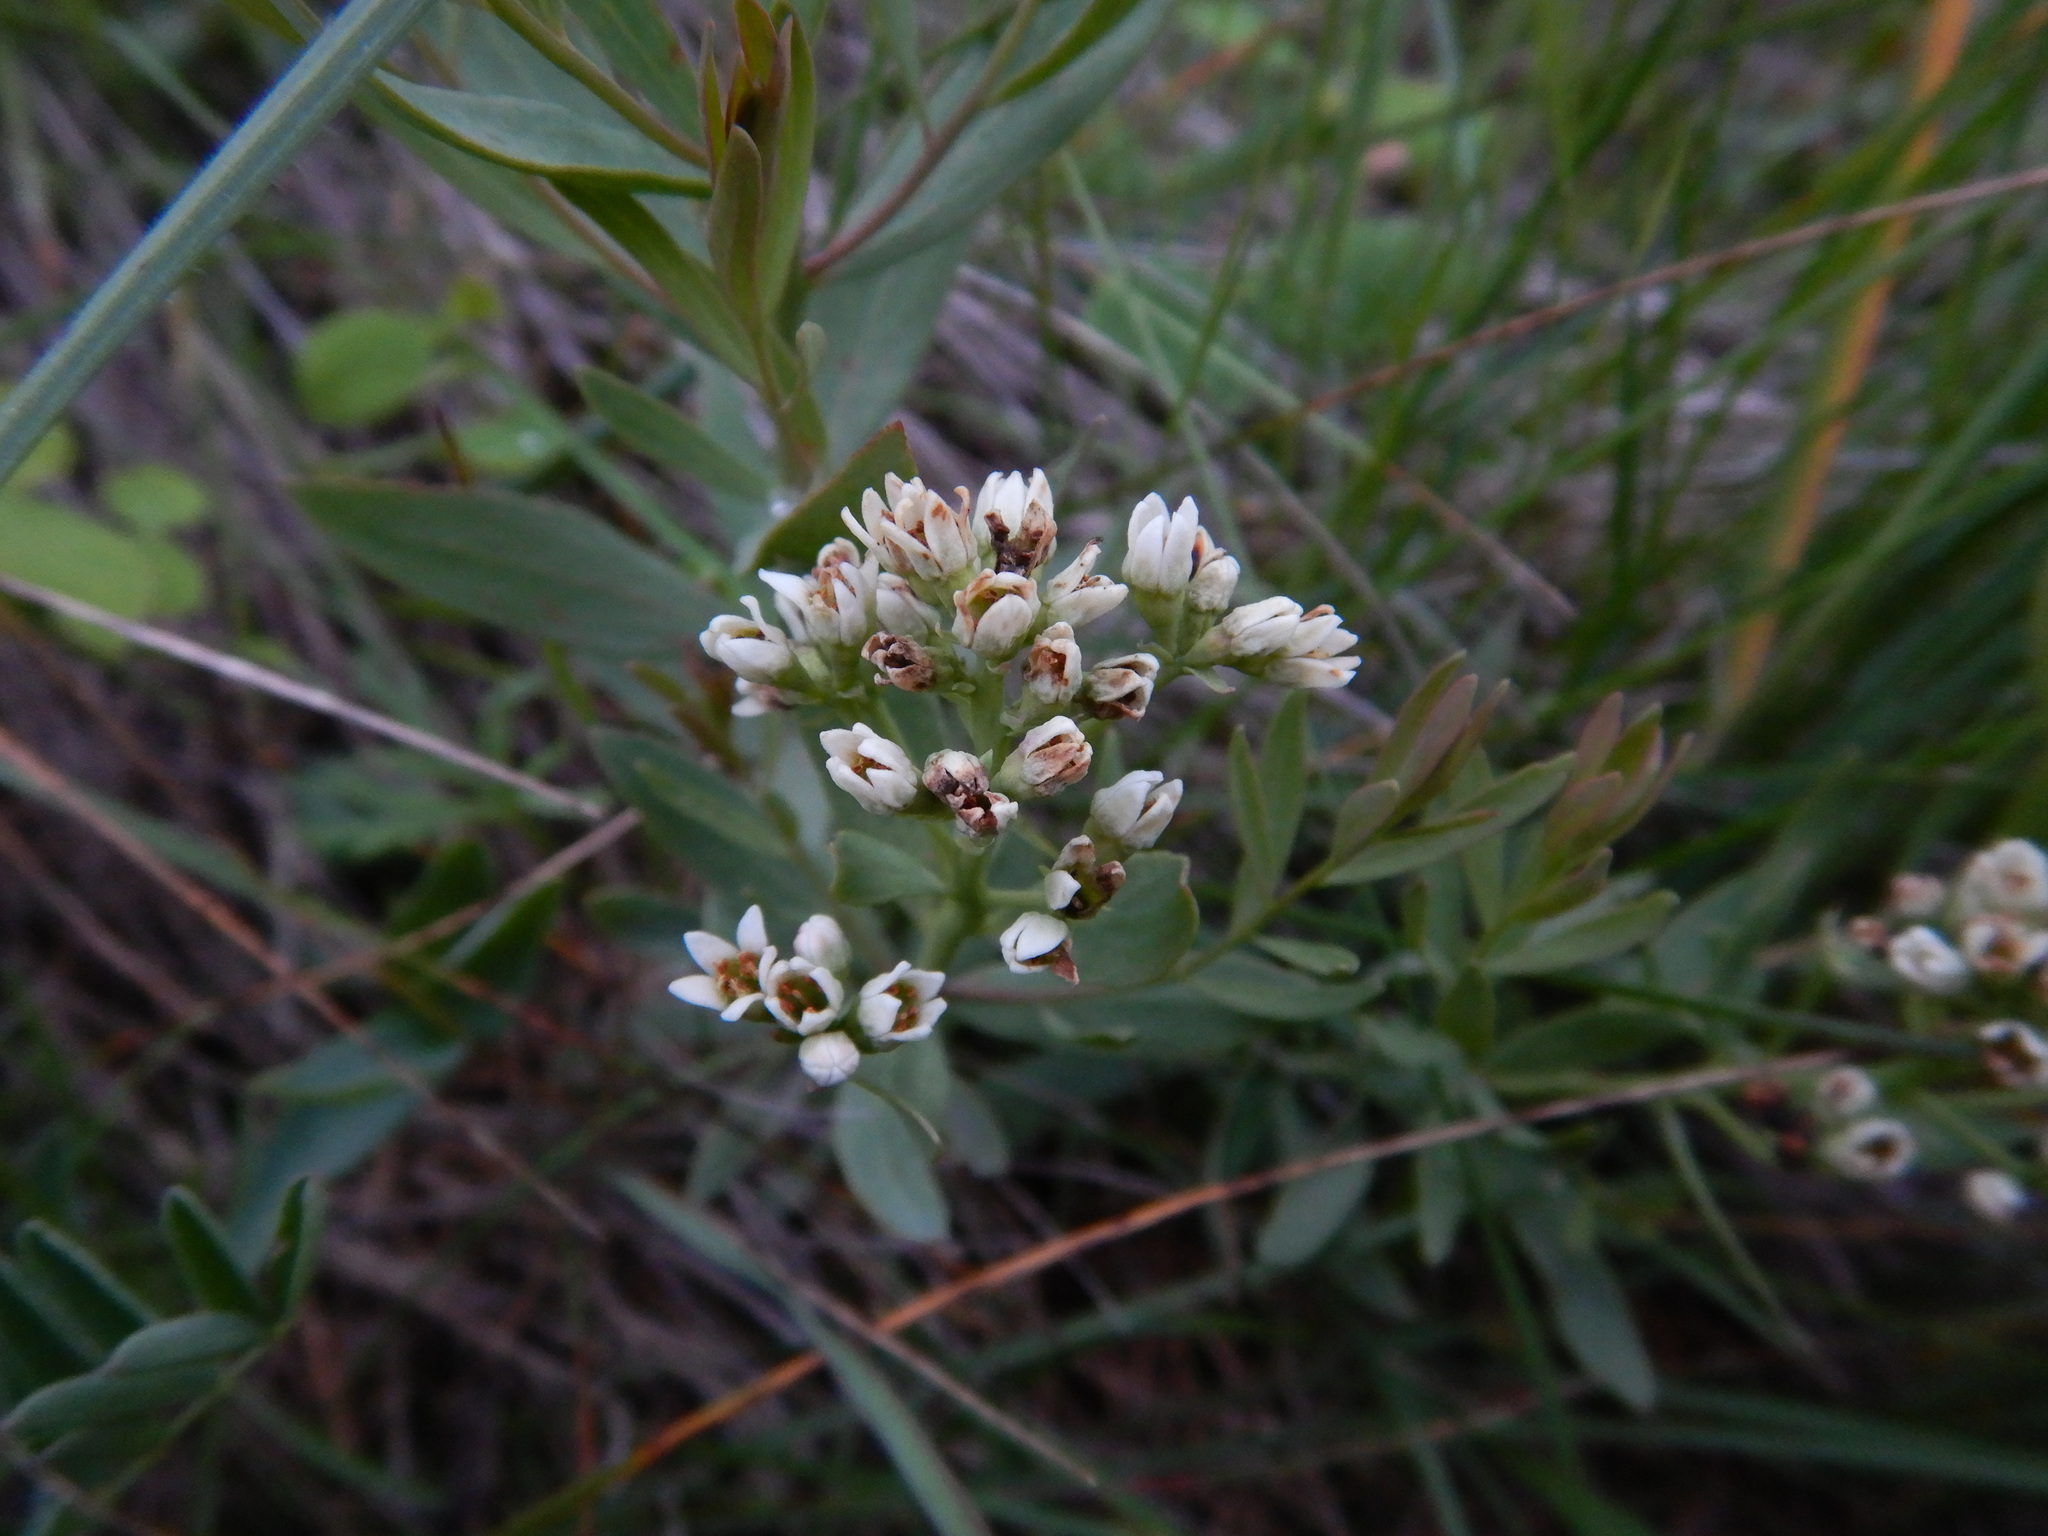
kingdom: Plantae
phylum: Tracheophyta
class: Magnoliopsida
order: Santalales
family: Comandraceae
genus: Comandra
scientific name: Comandra umbellata
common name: Bastard toadflax
